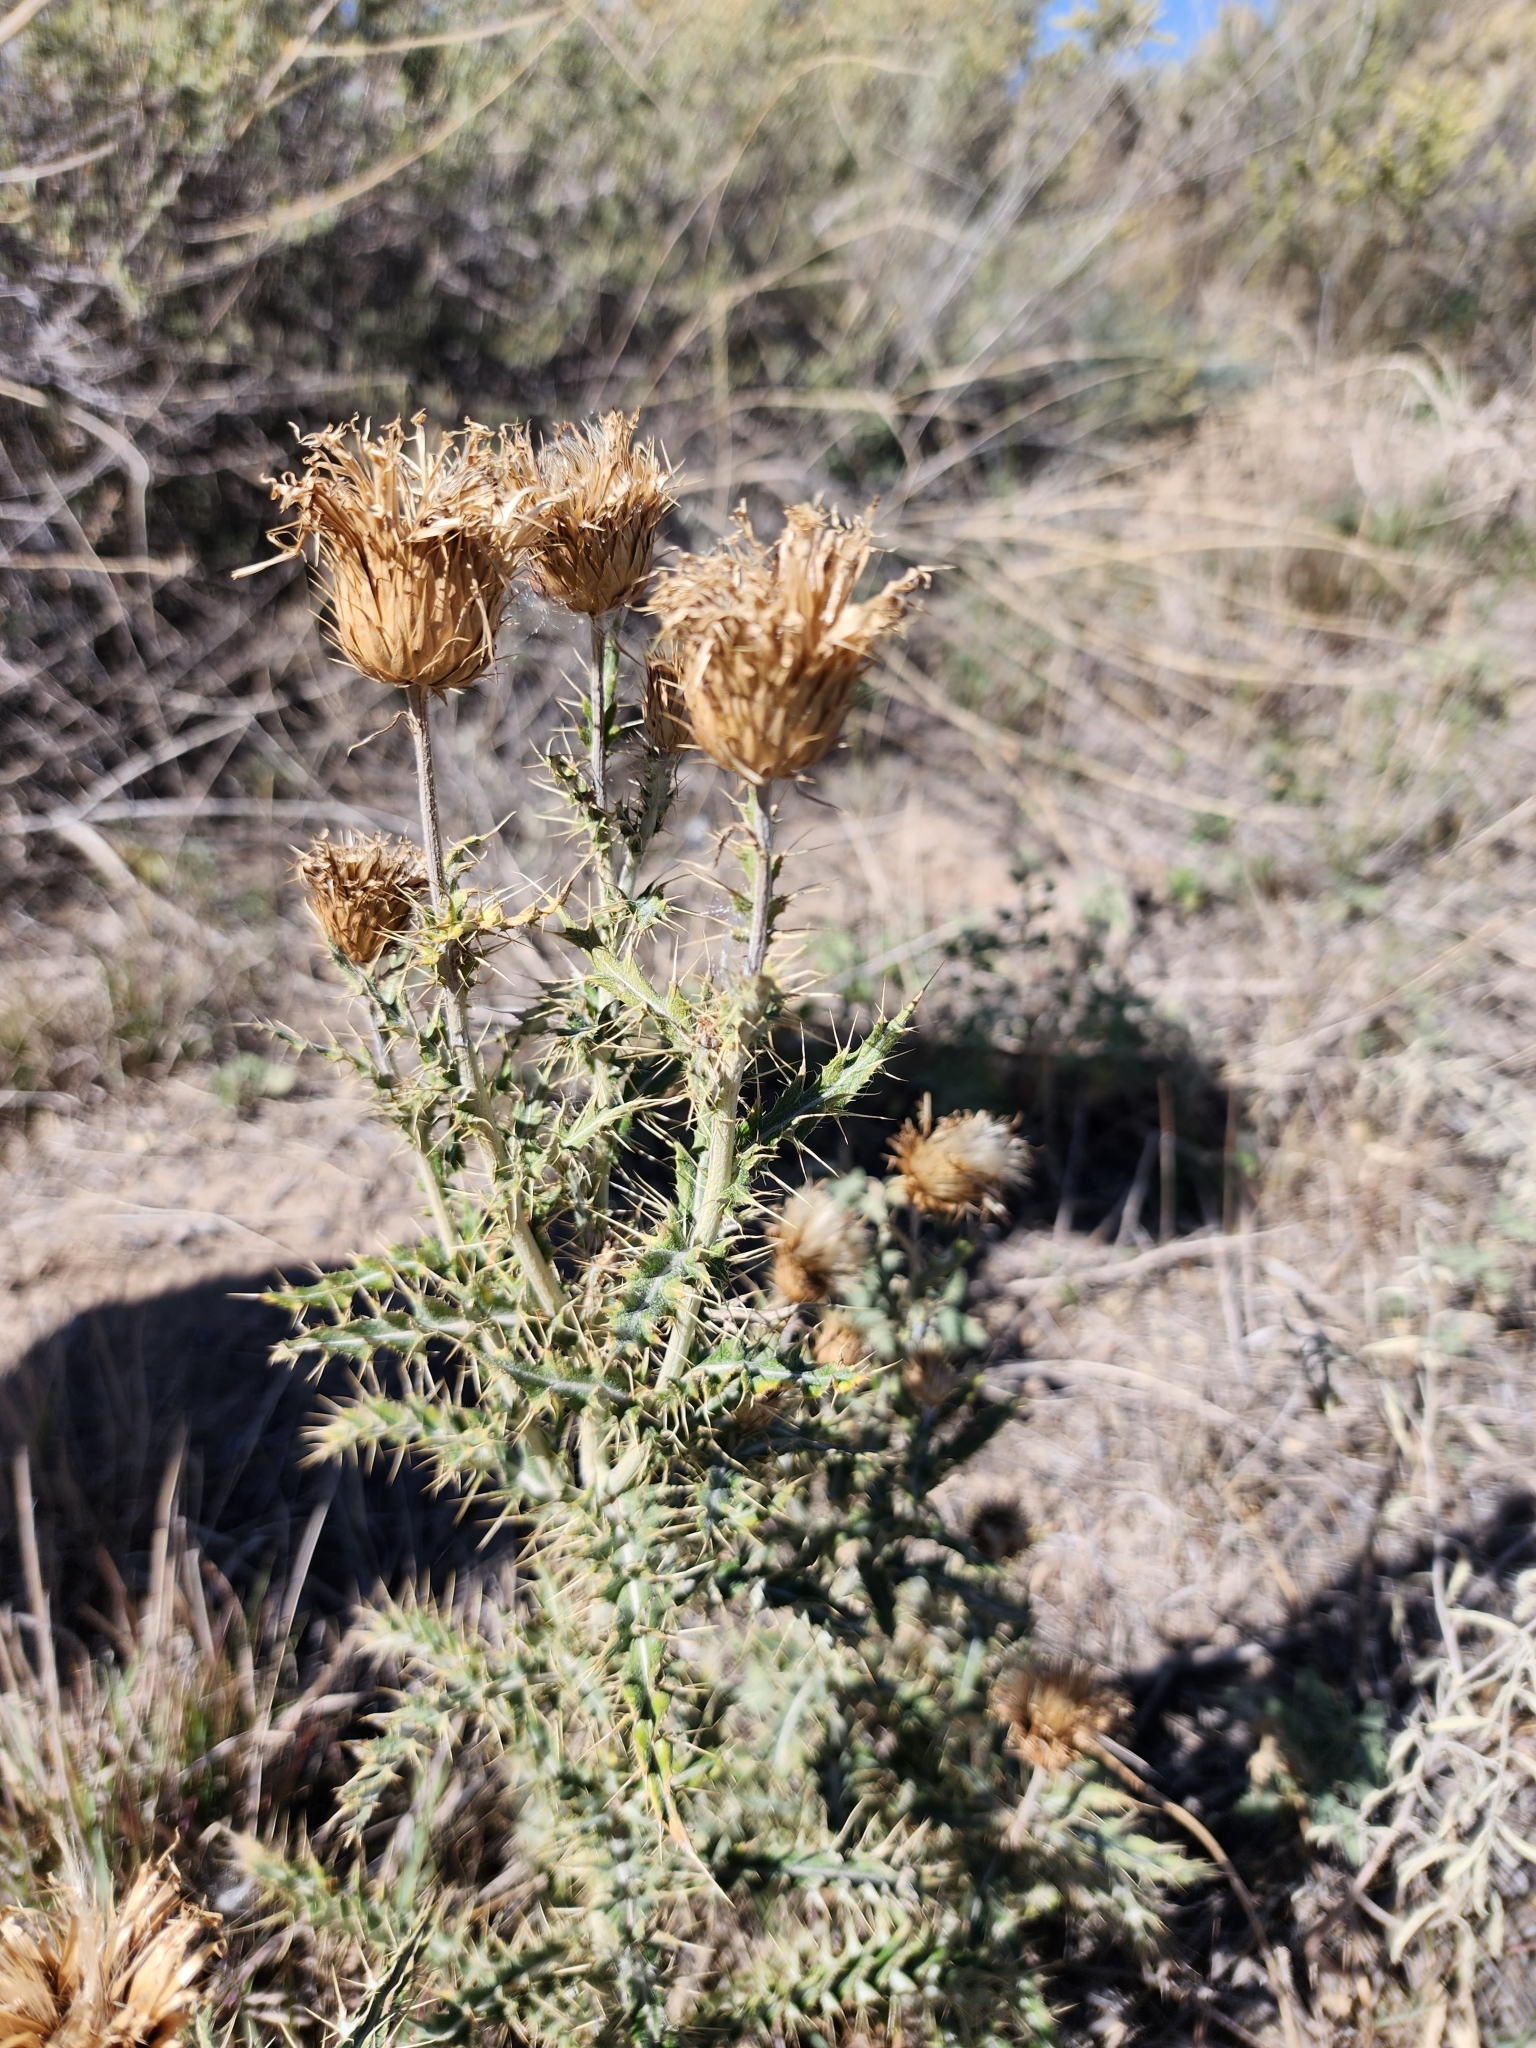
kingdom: Plantae
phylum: Tracheophyta
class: Magnoliopsida
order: Asterales
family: Asteraceae
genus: Cirsium
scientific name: Cirsium ochrocentrum
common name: Yellow-spine thistle
